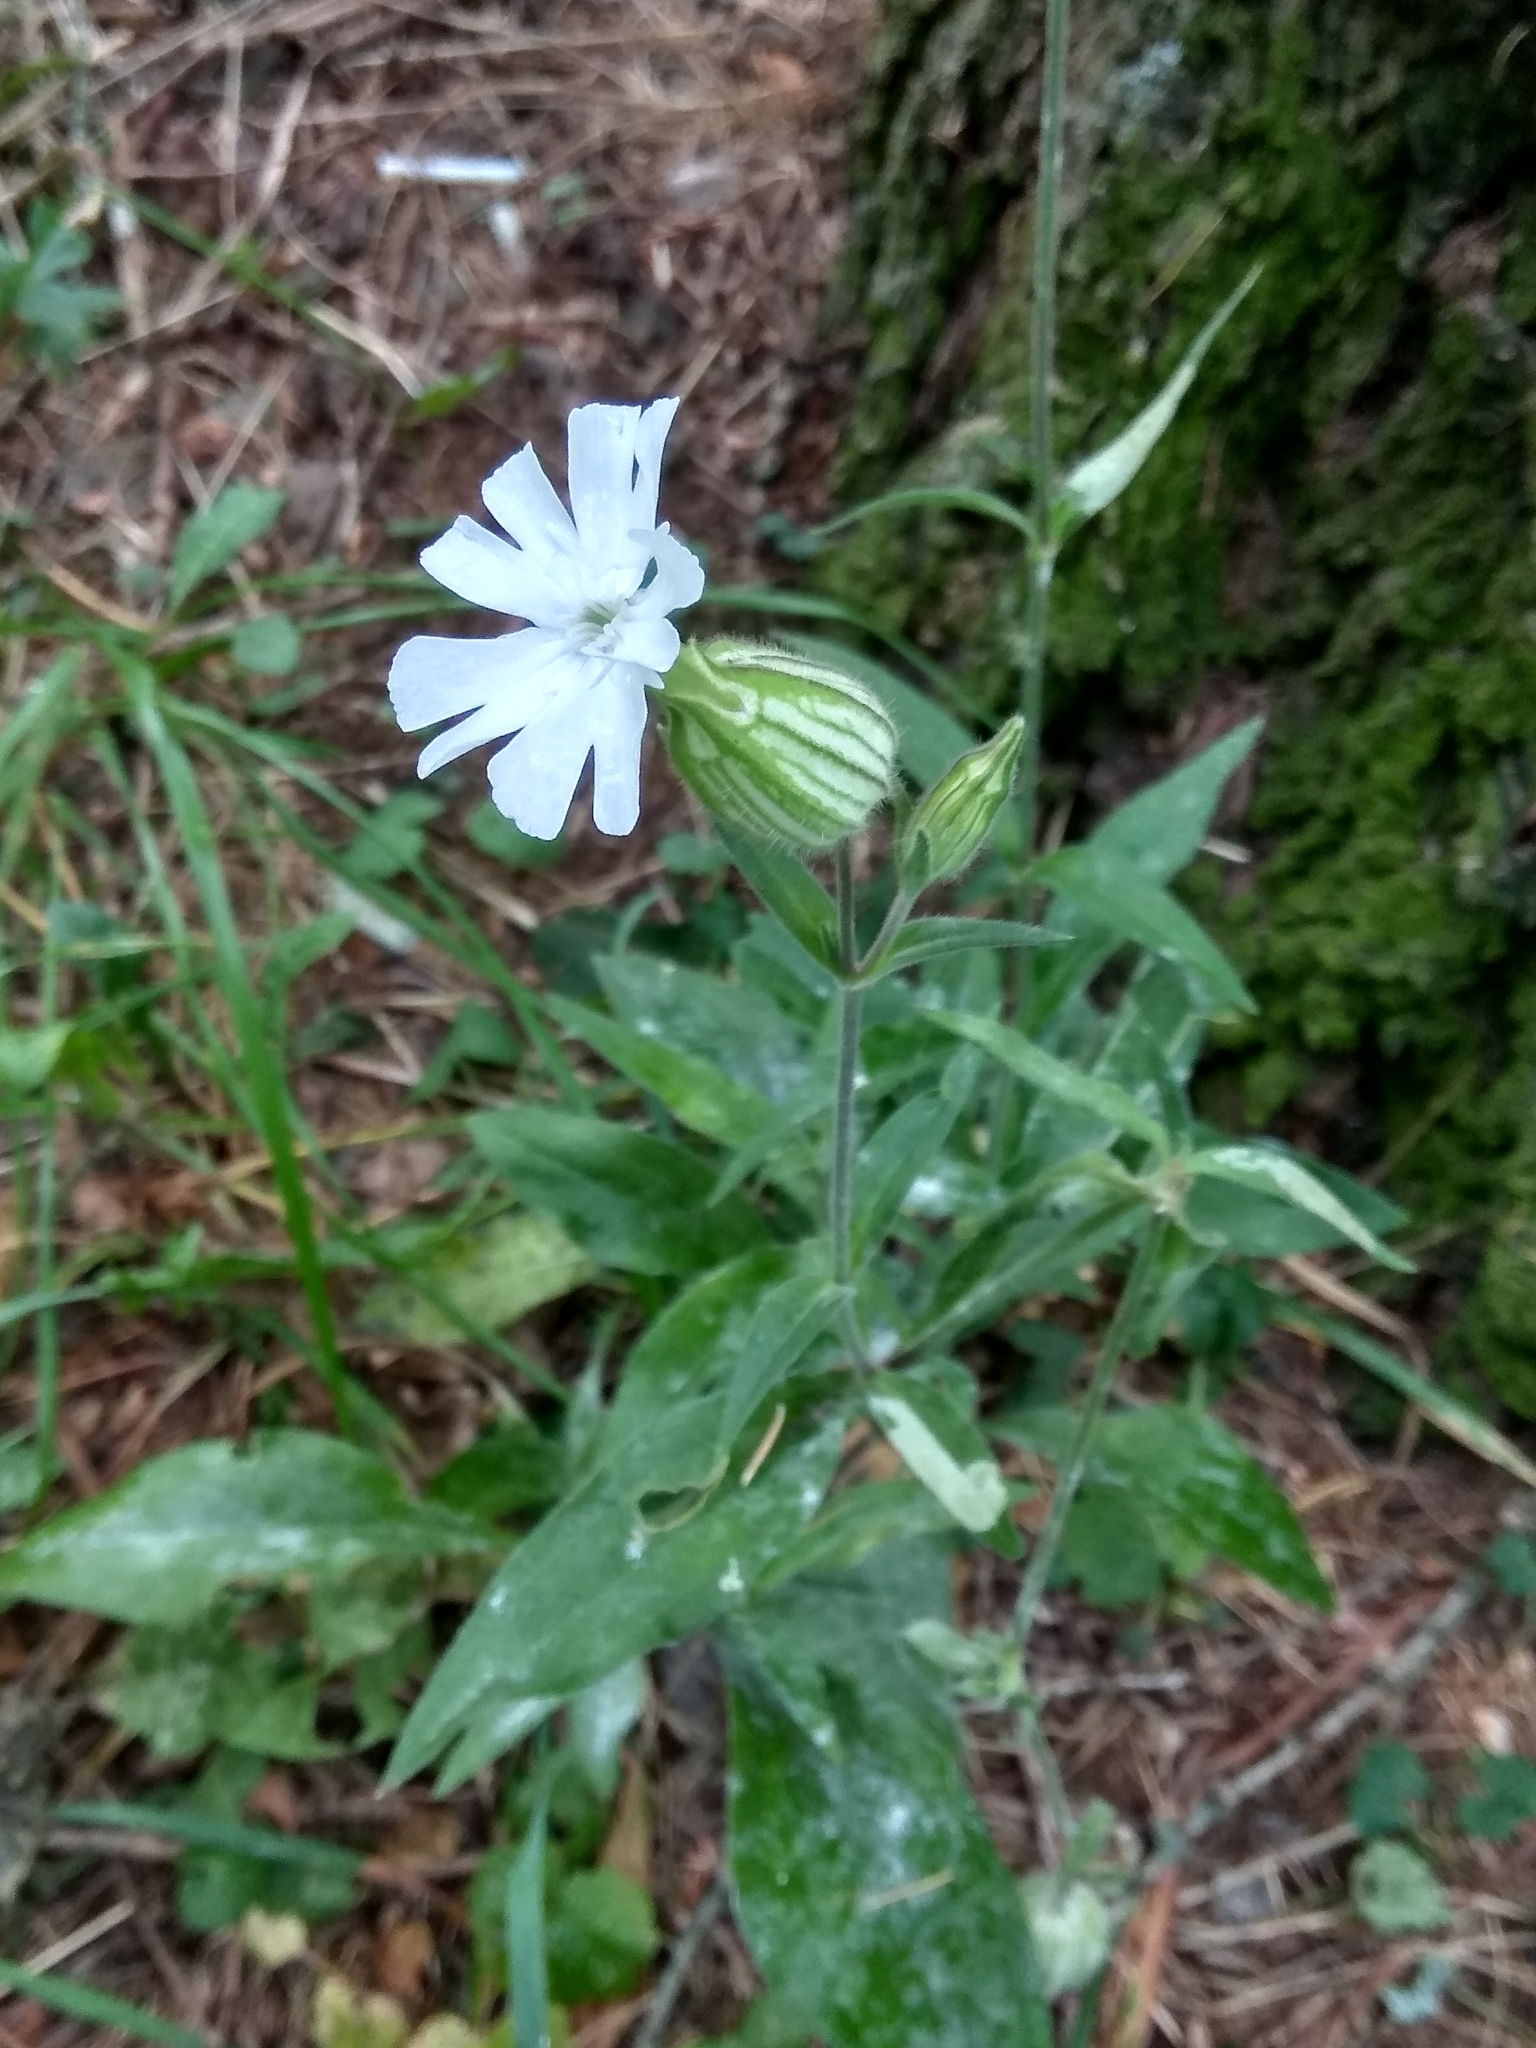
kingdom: Plantae
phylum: Tracheophyta
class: Magnoliopsida
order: Caryophyllales
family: Caryophyllaceae
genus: Silene
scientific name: Silene latifolia
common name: White campion
